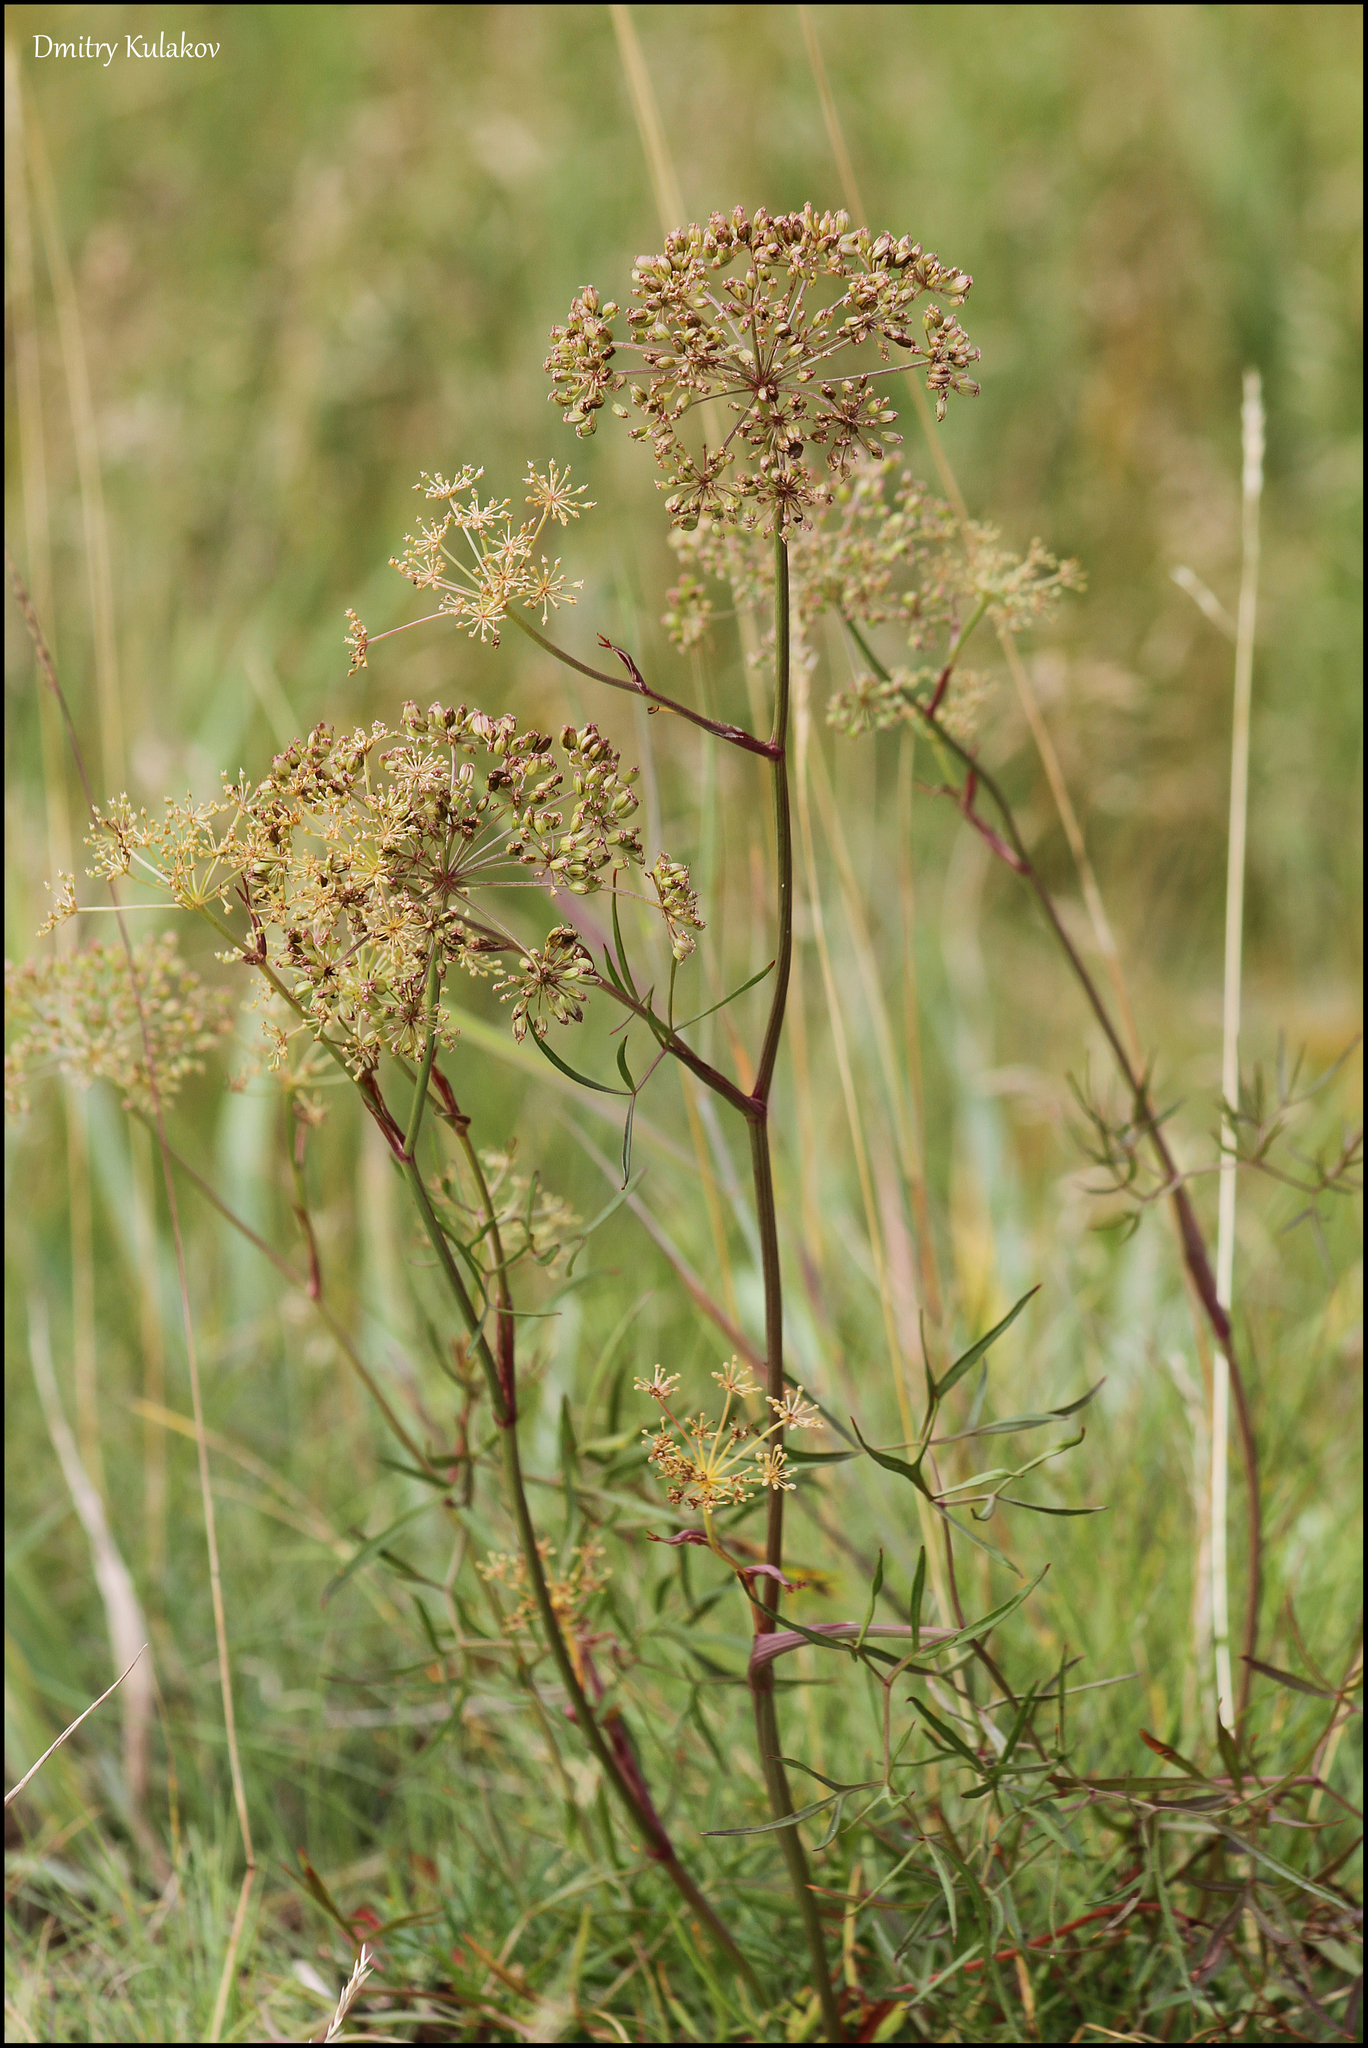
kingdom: Plantae
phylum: Tracheophyta
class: Magnoliopsida
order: Apiales
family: Apiaceae
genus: Cenolophium
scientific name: Cenolophium fischeri
